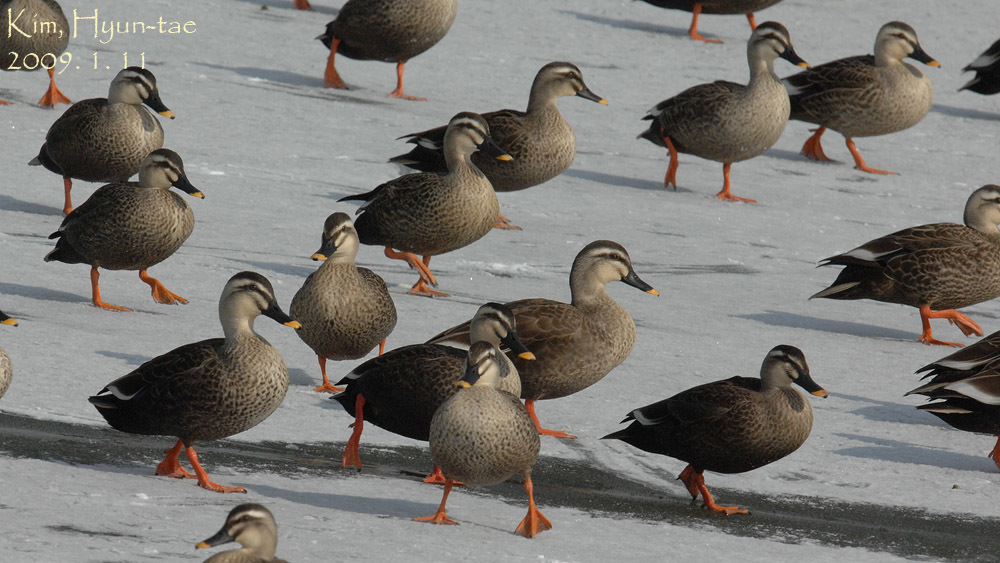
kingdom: Animalia
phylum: Chordata
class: Aves
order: Anseriformes
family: Anatidae
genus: Anas
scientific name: Anas zonorhyncha
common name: Eastern spot-billed duck
